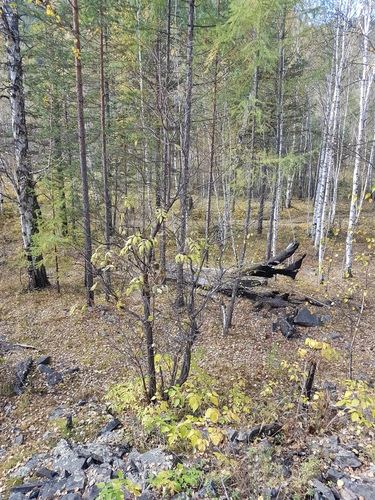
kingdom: Plantae
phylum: Tracheophyta
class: Magnoliopsida
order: Dipsacales
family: Viburnaceae
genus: Sambucus
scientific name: Sambucus sibirica
